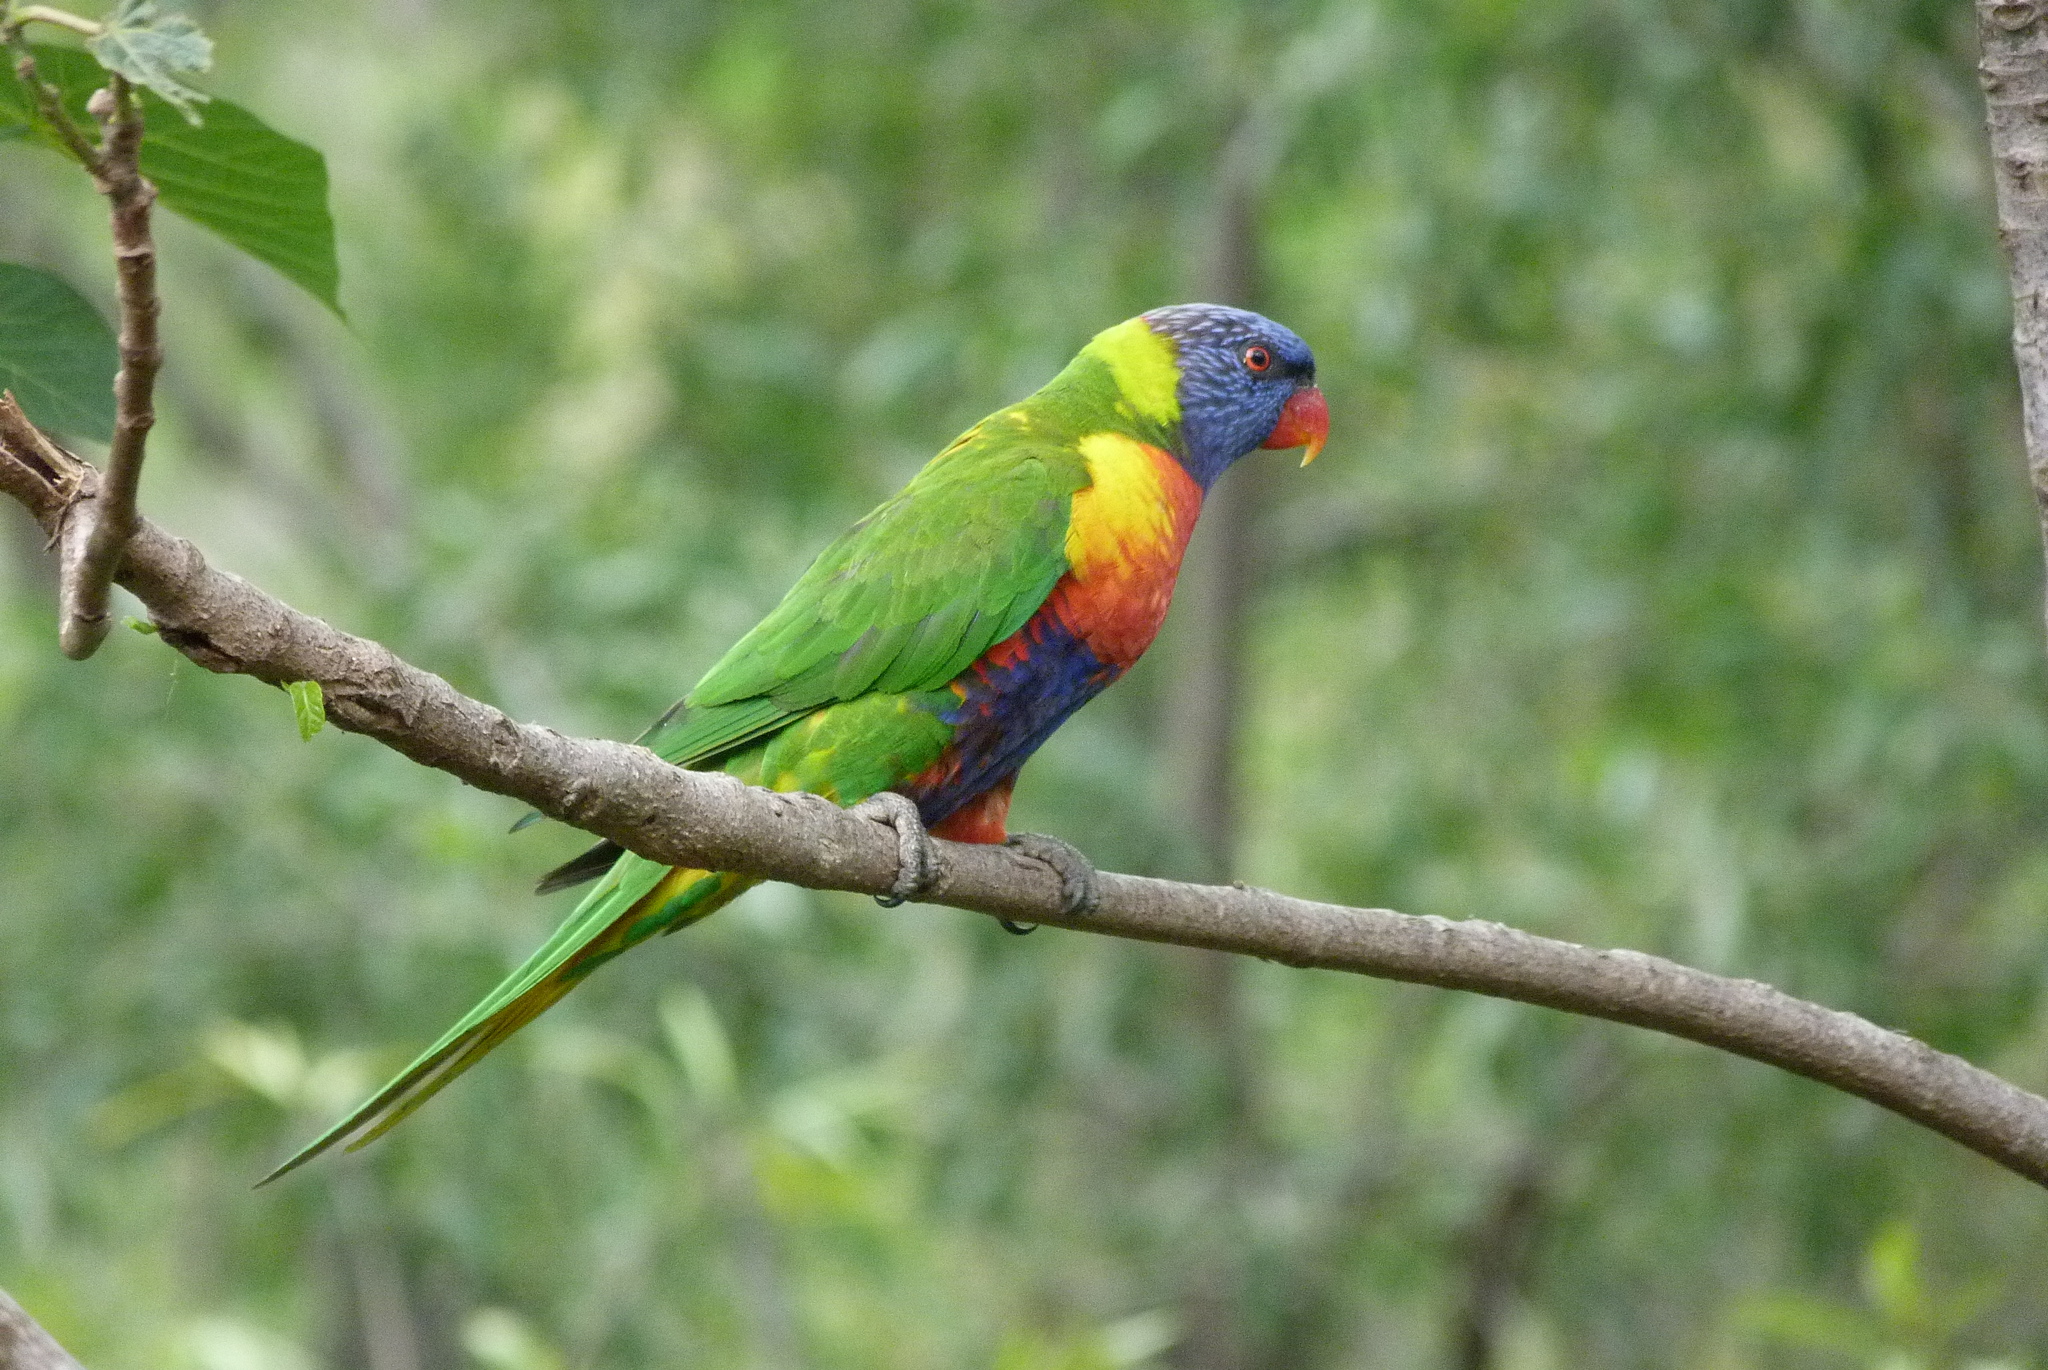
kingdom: Animalia
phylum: Chordata
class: Aves
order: Psittaciformes
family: Psittacidae
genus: Trichoglossus
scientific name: Trichoglossus haematodus
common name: Coconut lorikeet
